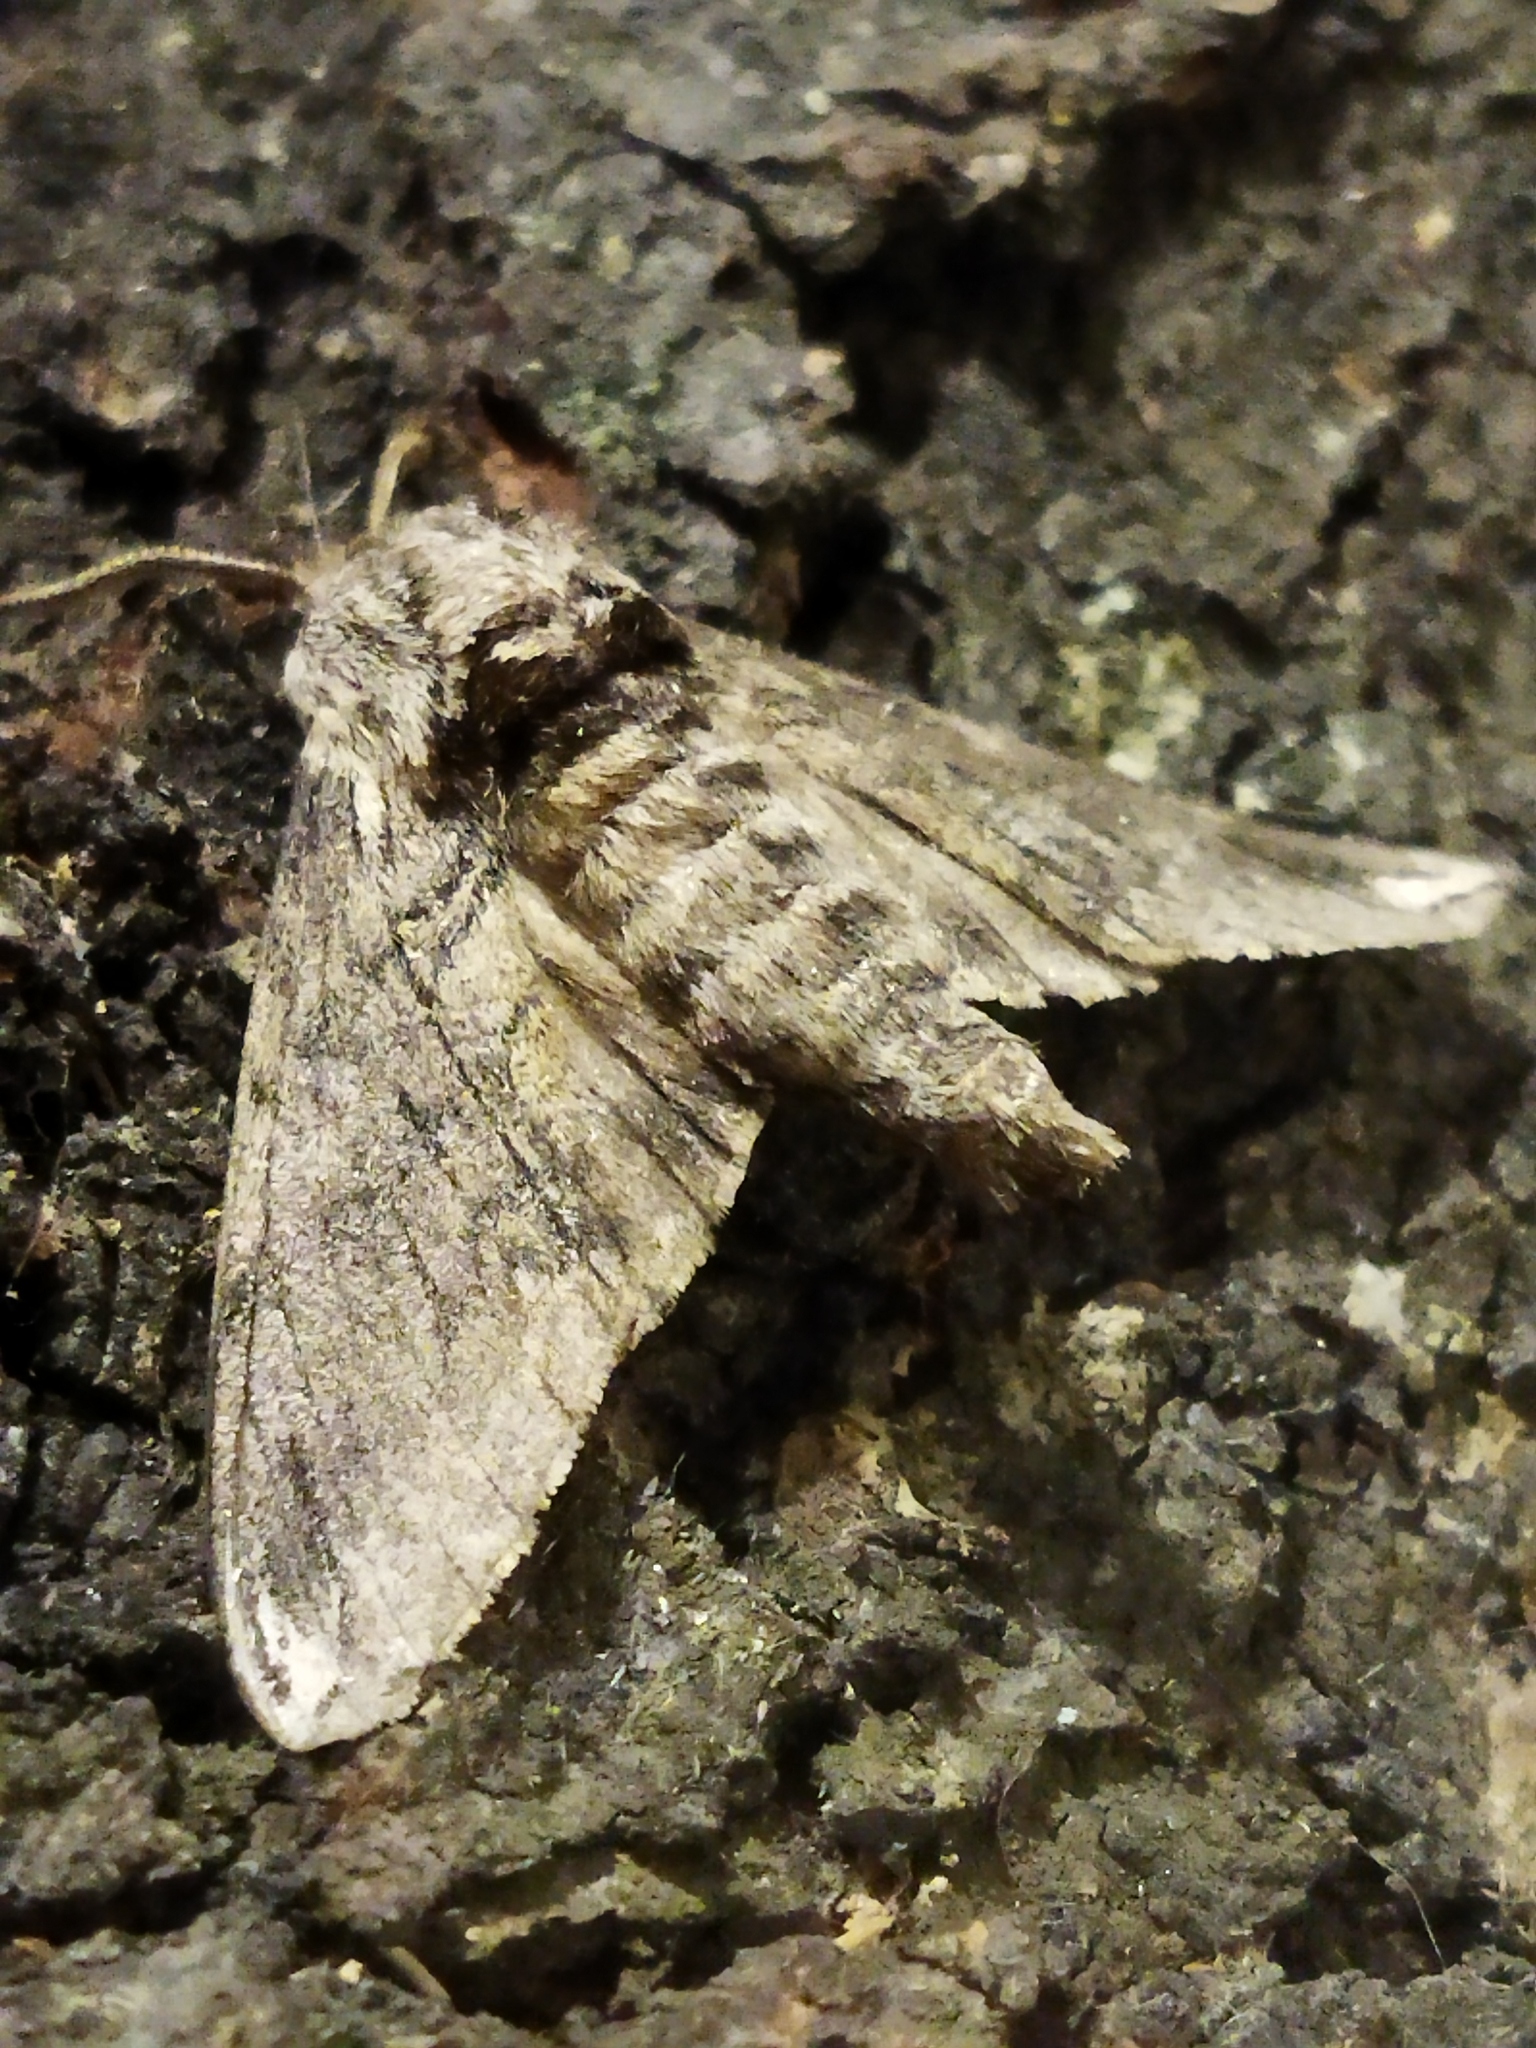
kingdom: Animalia
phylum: Arthropoda
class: Insecta
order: Lepidoptera
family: Sphingidae
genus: Dolbina
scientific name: Dolbina elegans
